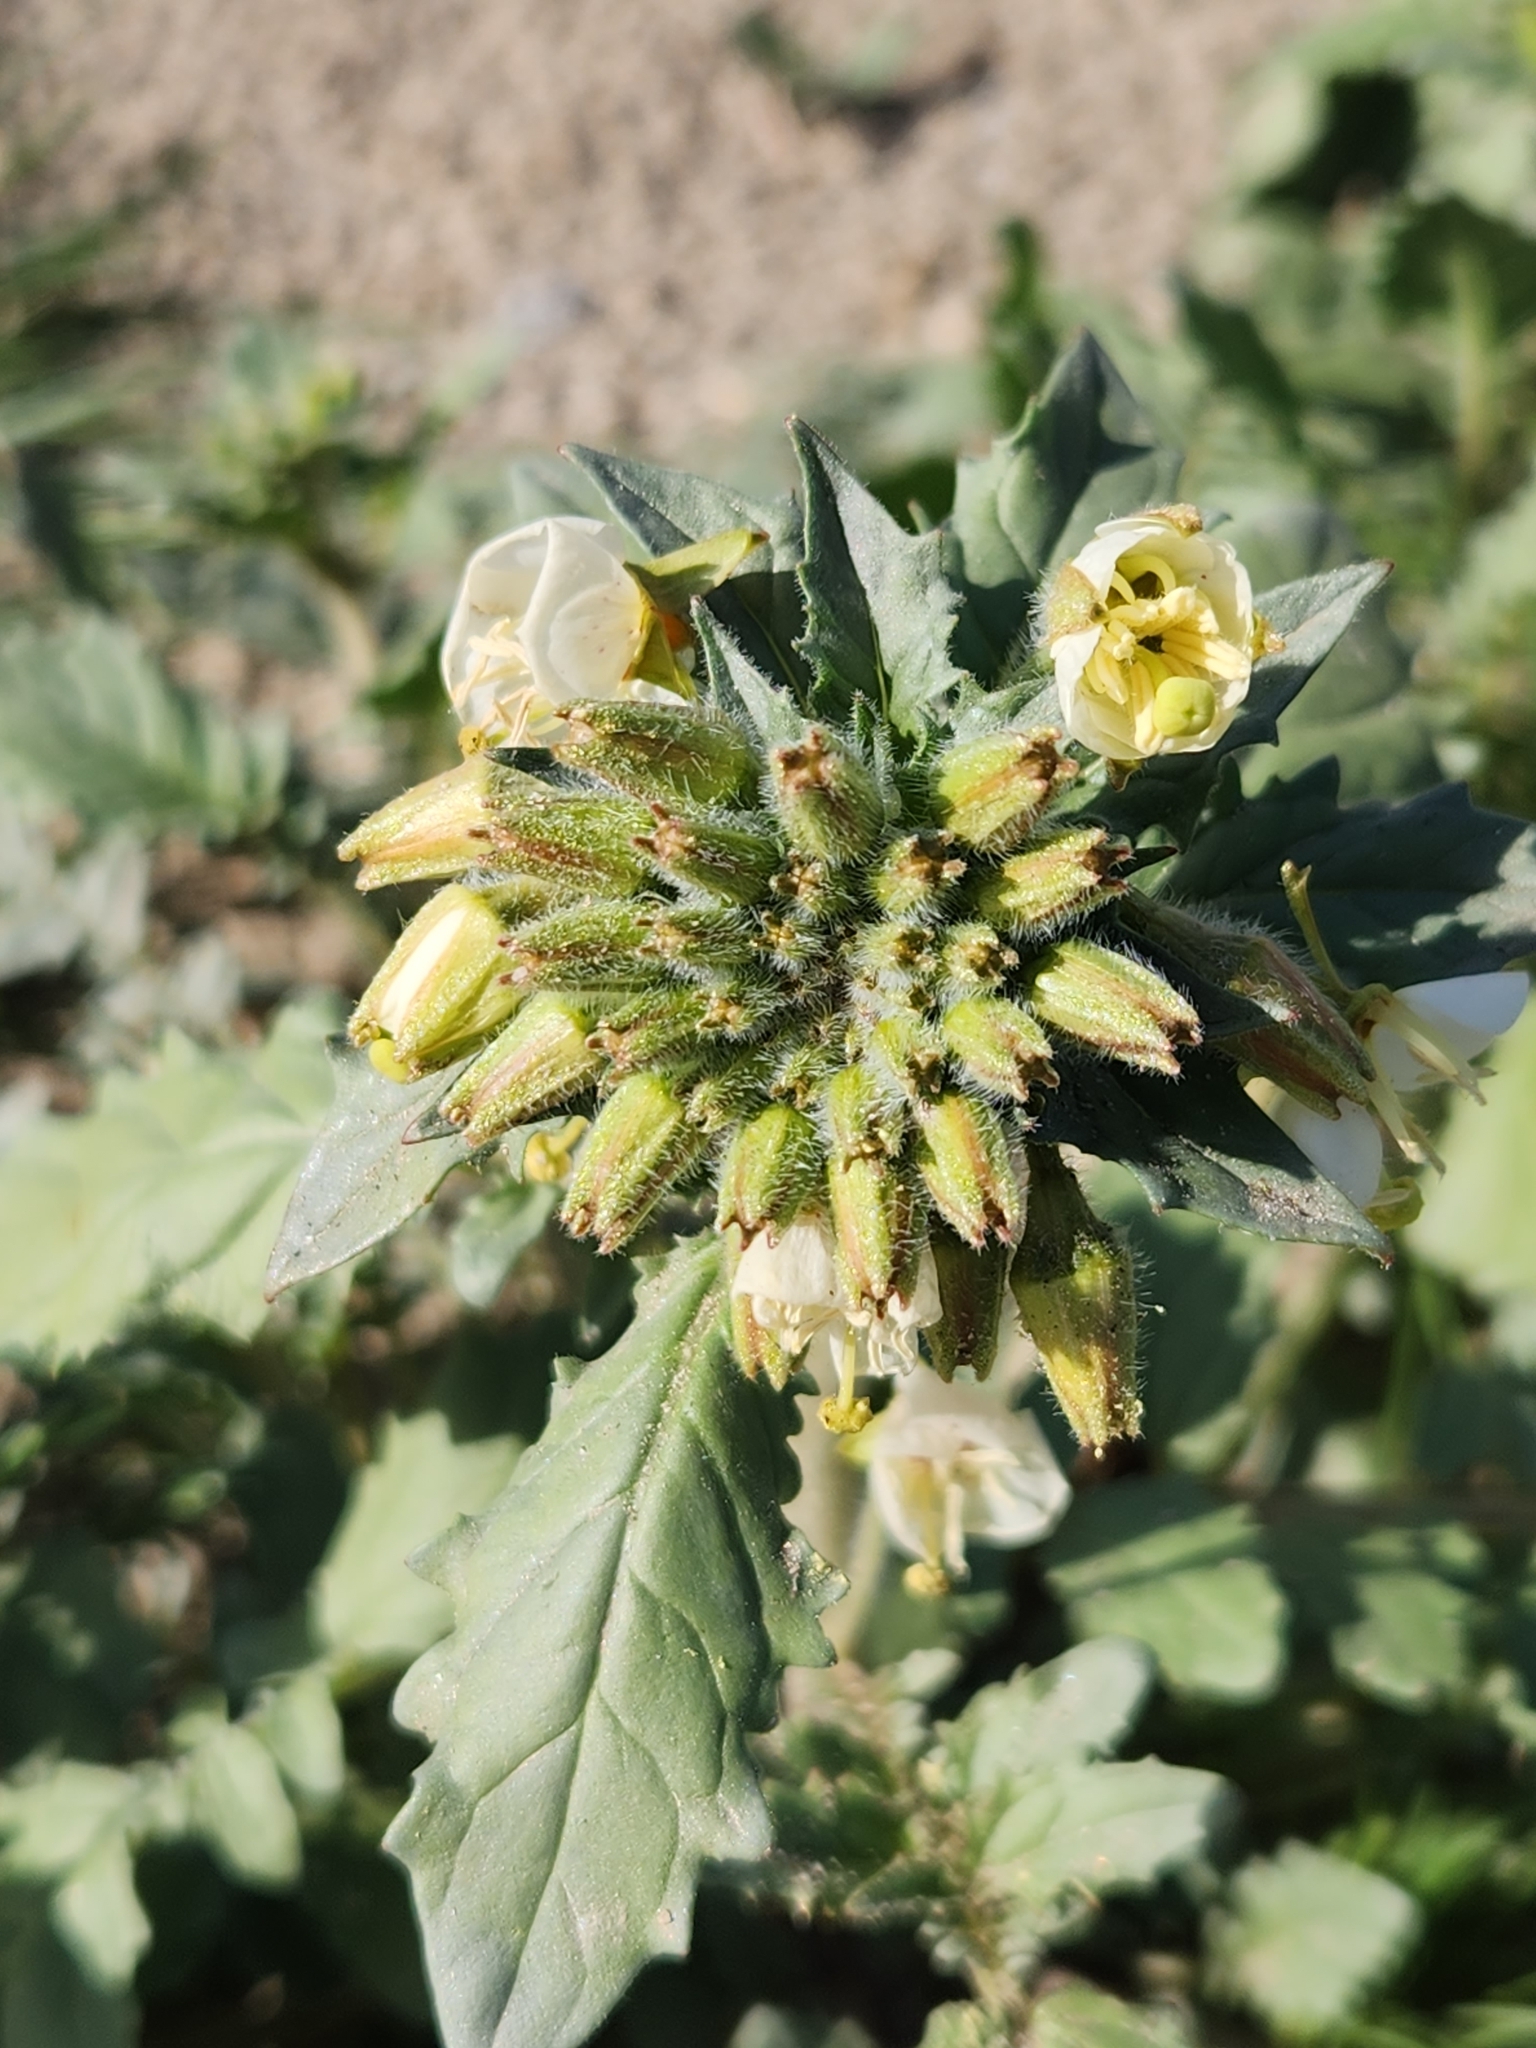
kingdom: Plantae
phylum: Tracheophyta
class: Magnoliopsida
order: Myrtales
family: Onagraceae
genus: Chylismia
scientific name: Chylismia claviformis
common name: Browneyes
